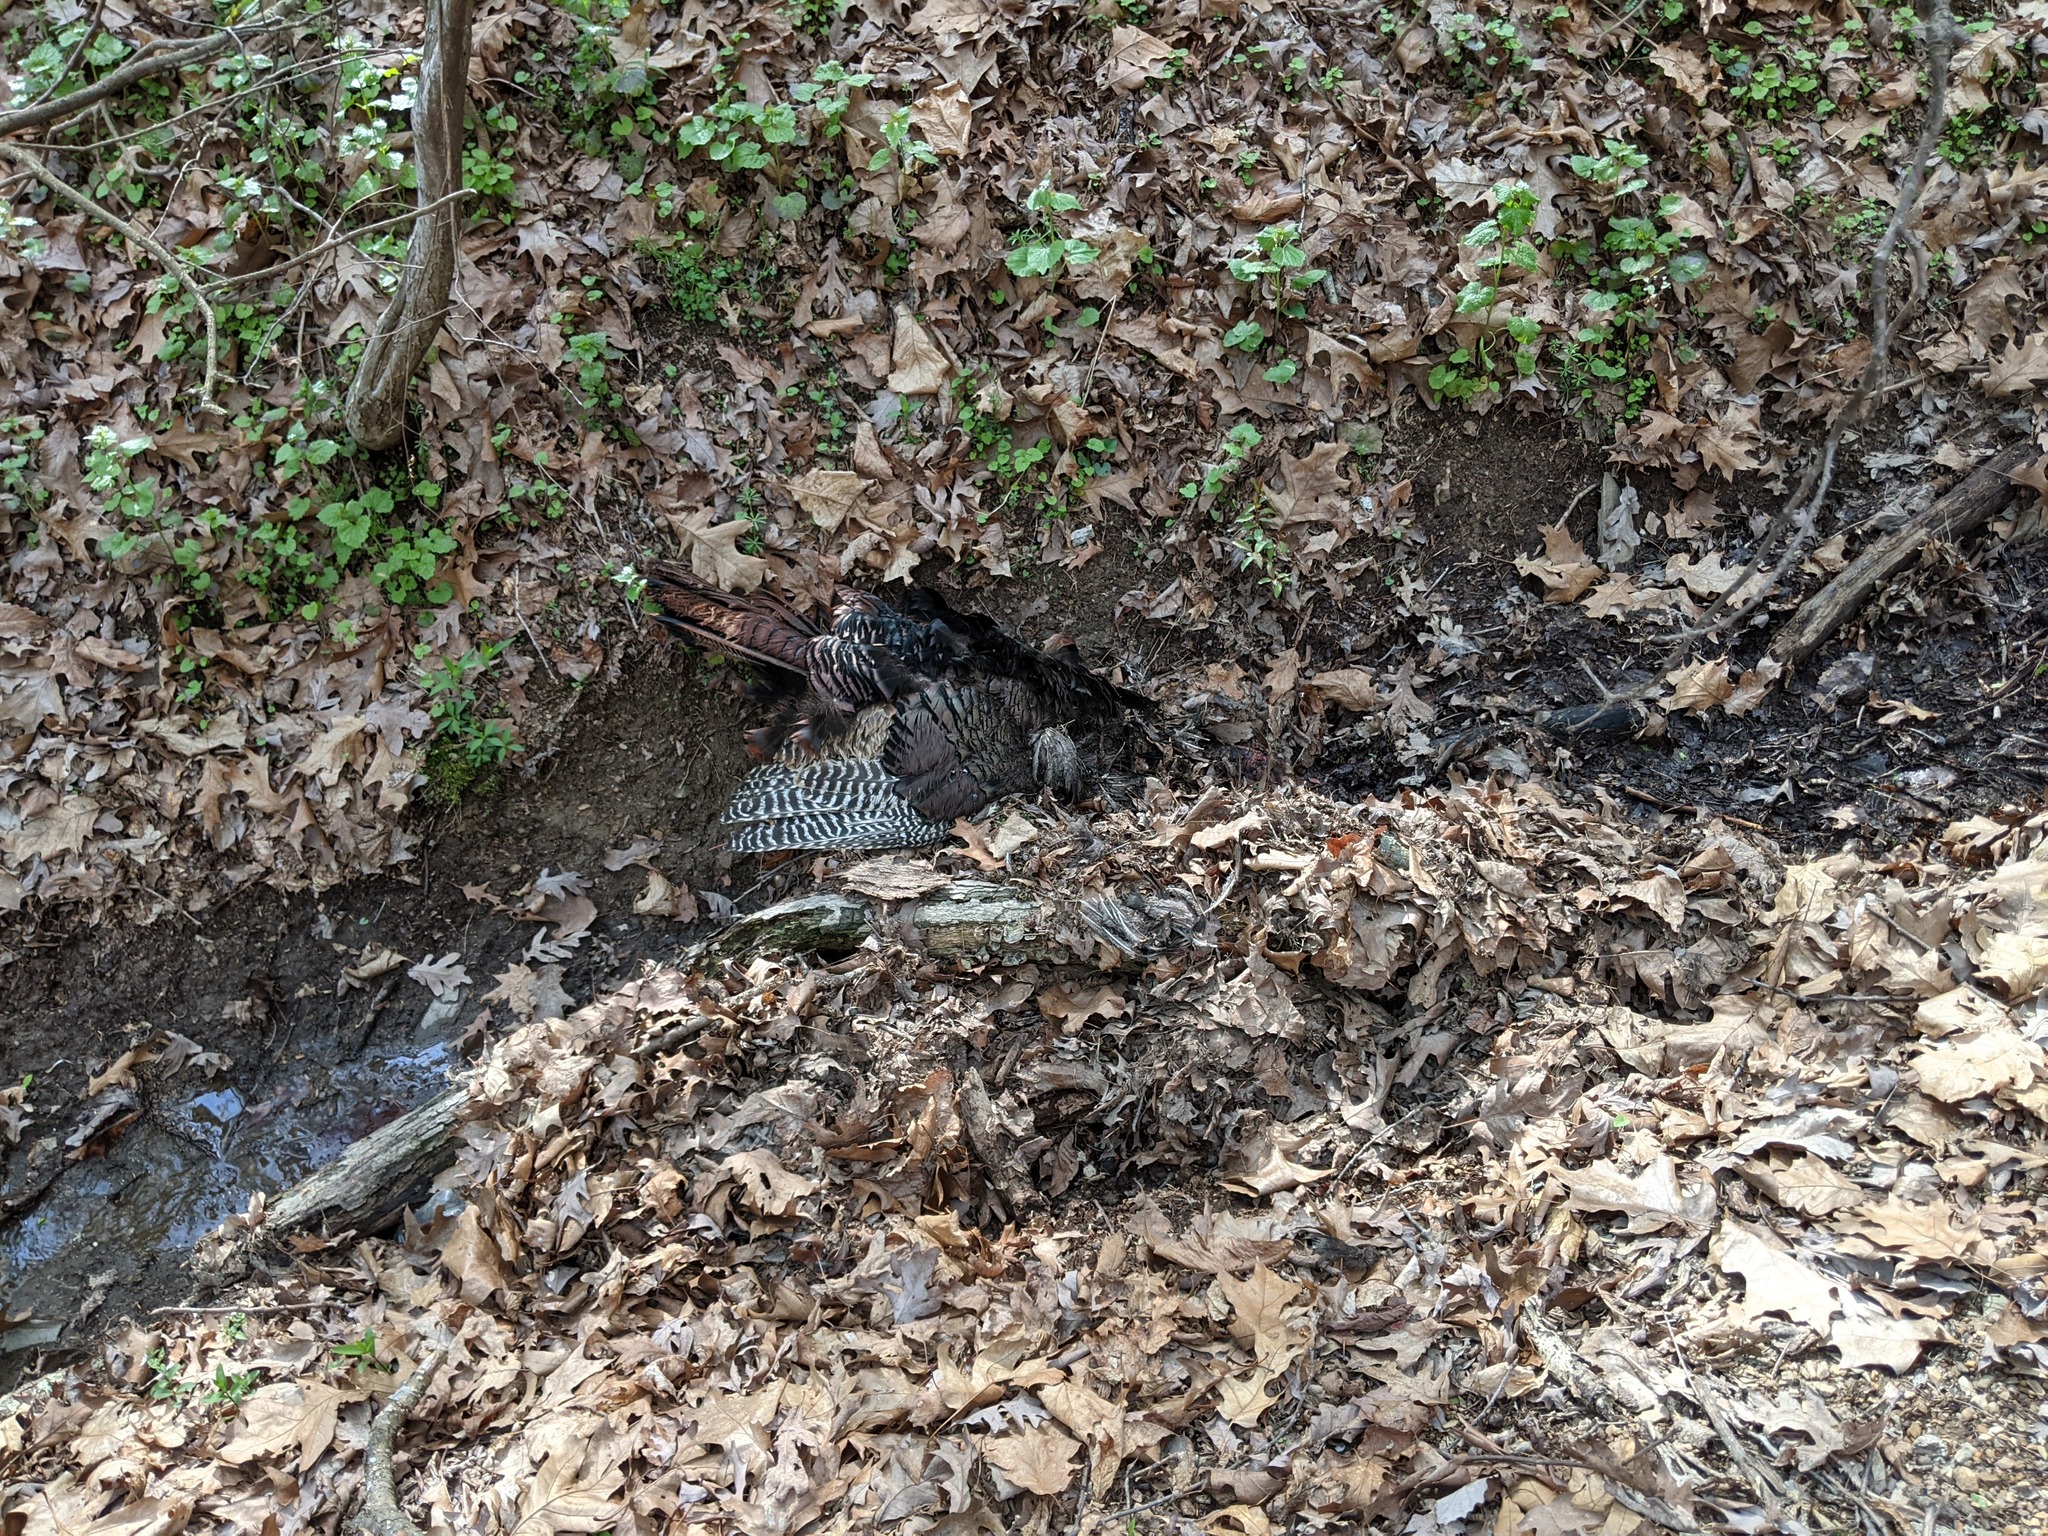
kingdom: Animalia
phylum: Chordata
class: Aves
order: Galliformes
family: Phasianidae
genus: Meleagris
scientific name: Meleagris gallopavo
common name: Wild turkey
